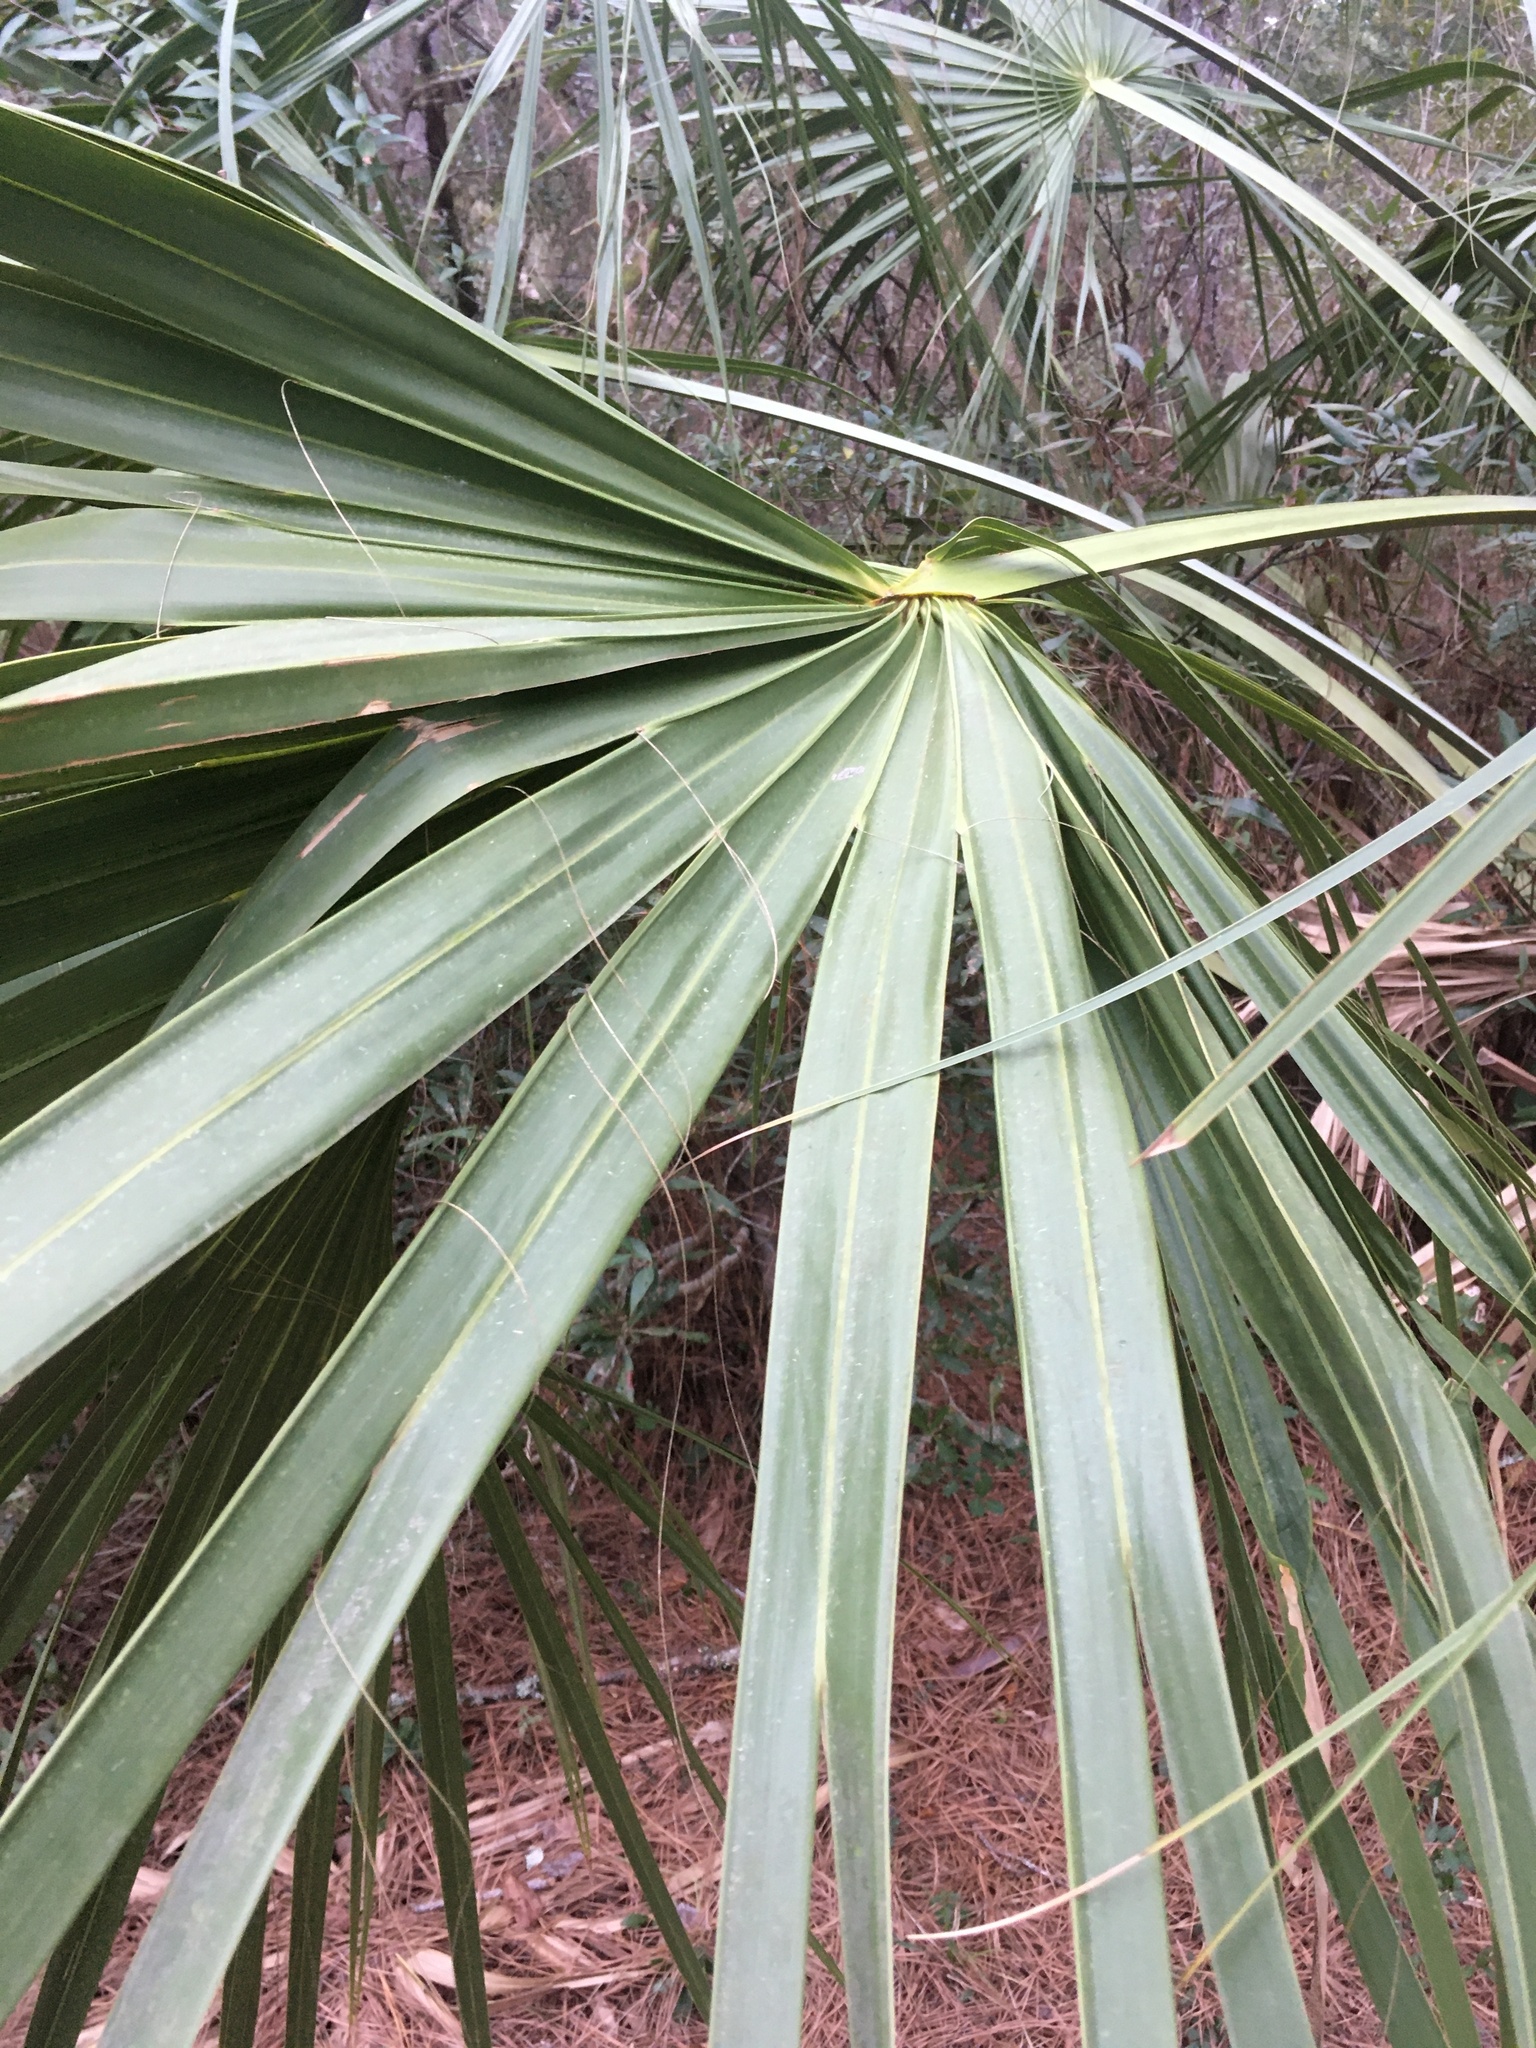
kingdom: Plantae
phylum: Tracheophyta
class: Liliopsida
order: Arecales
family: Arecaceae
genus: Sabal
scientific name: Sabal palmetto
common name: Blue palmetto
